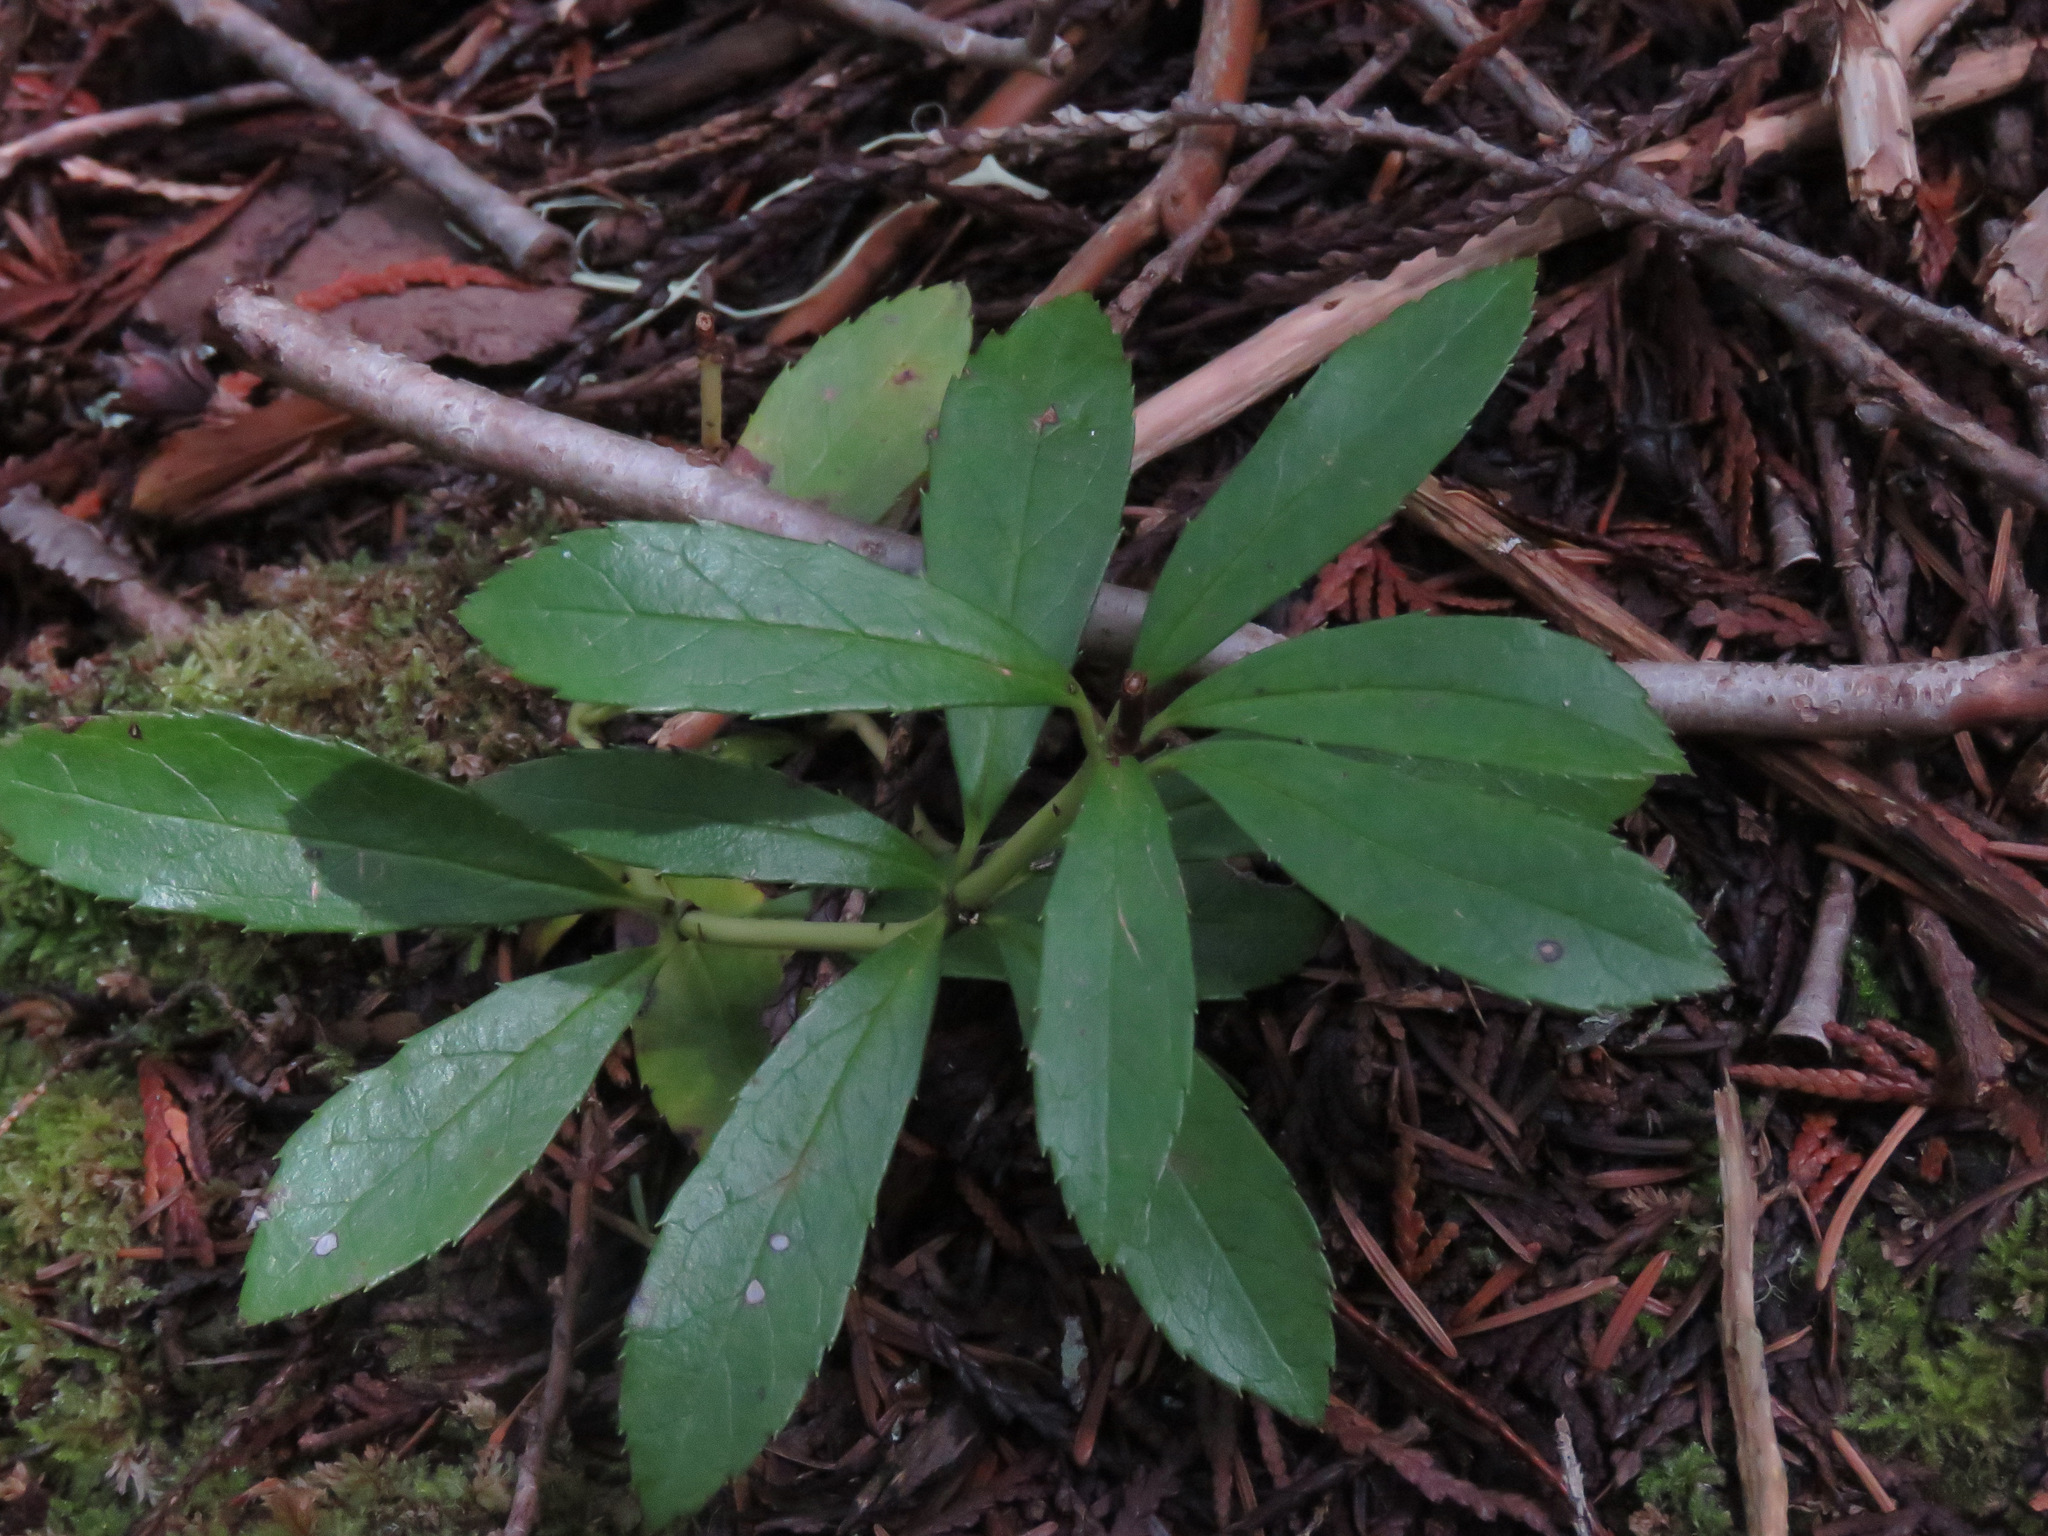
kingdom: Plantae
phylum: Tracheophyta
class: Magnoliopsida
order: Ericales
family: Ericaceae
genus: Chimaphila
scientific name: Chimaphila umbellata
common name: Pipsissewa
